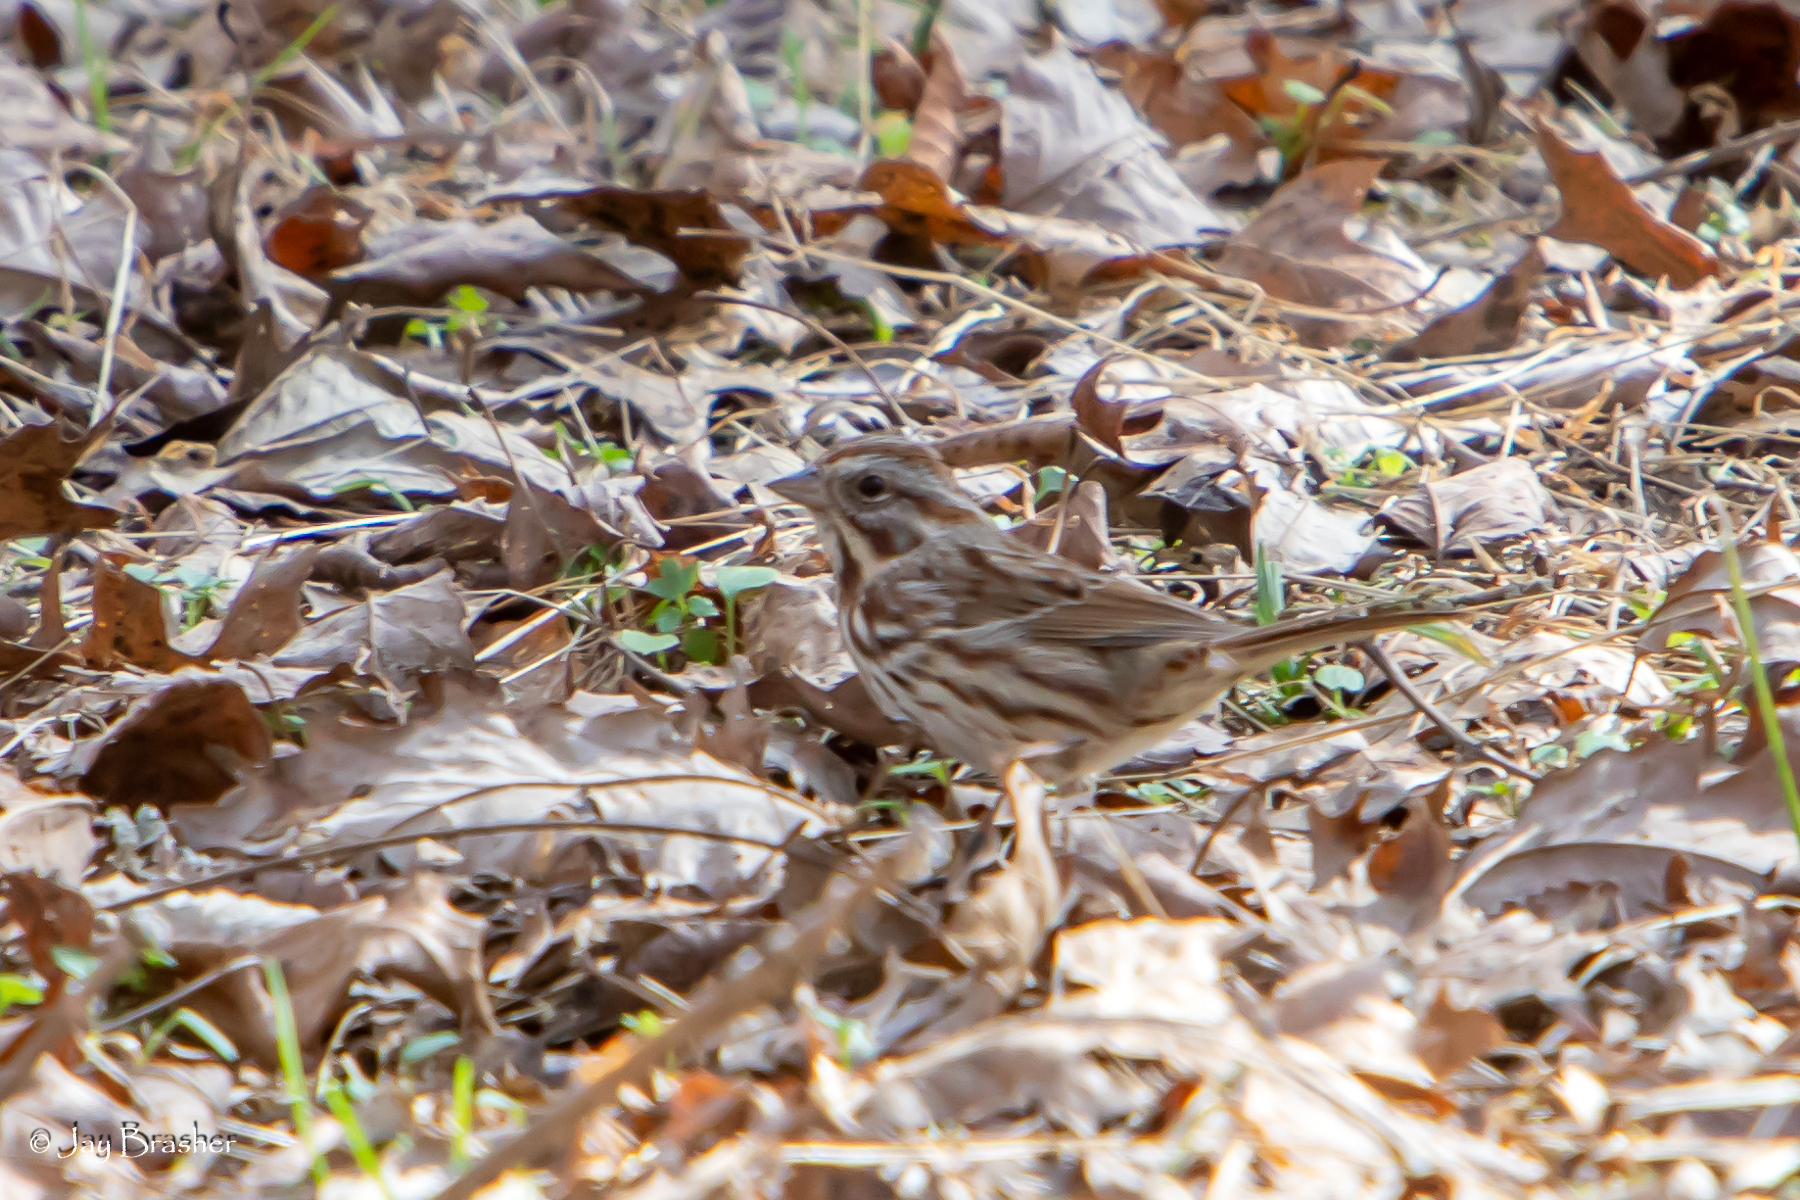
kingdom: Animalia
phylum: Chordata
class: Aves
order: Passeriformes
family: Passerellidae
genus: Melospiza
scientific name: Melospiza melodia
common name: Song sparrow
